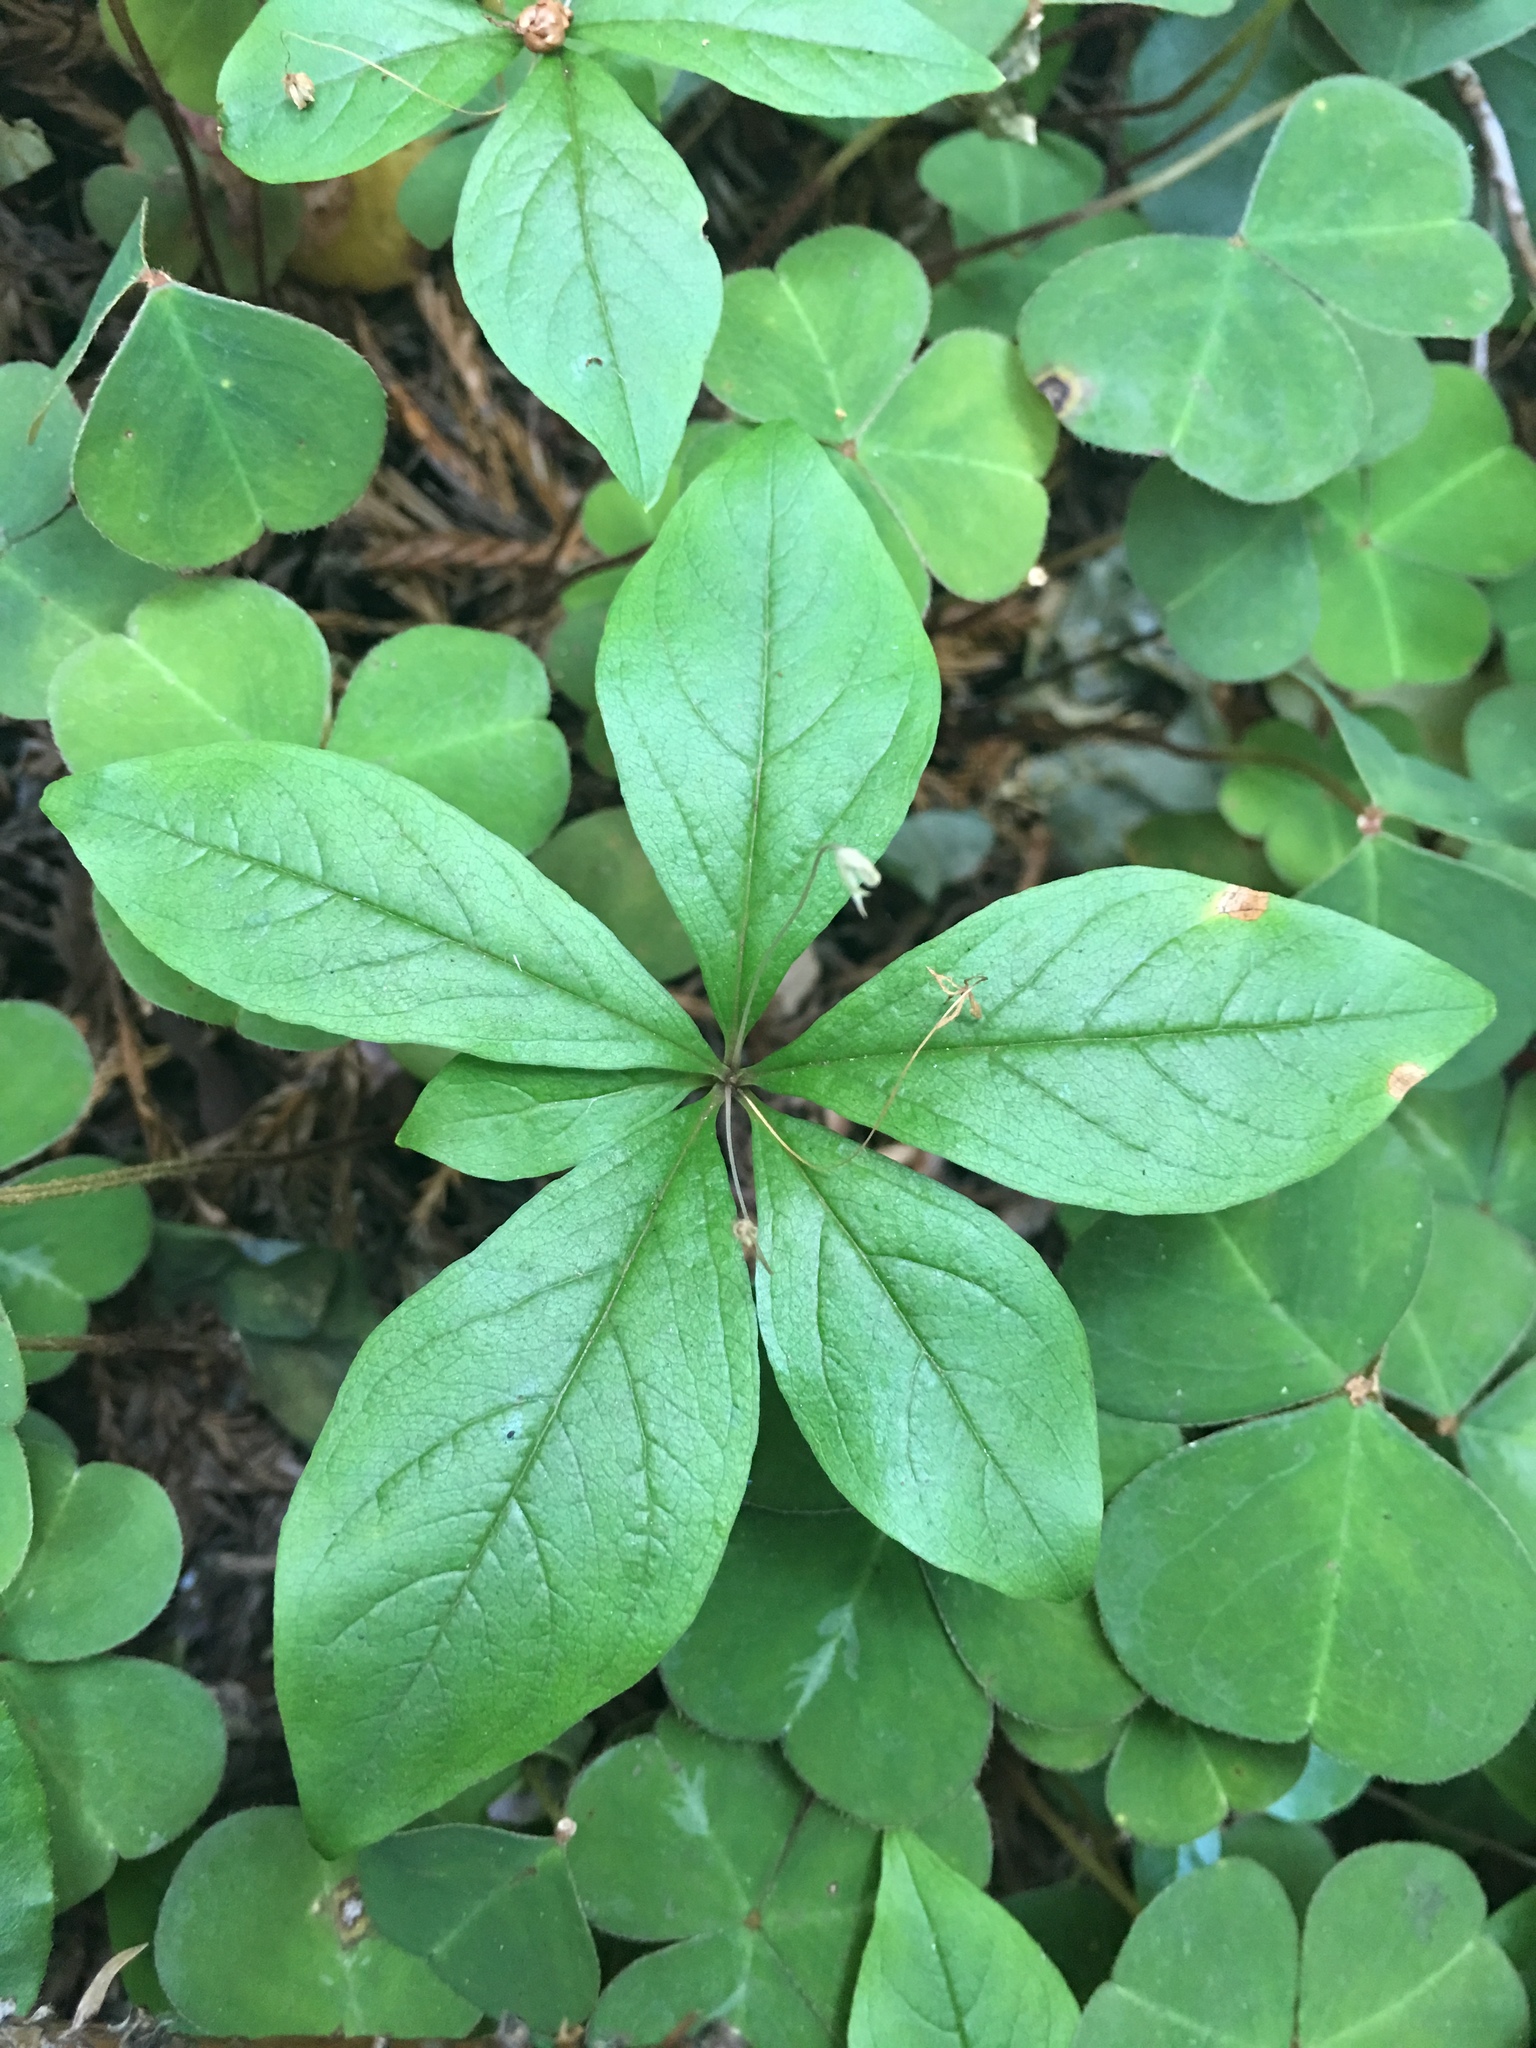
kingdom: Plantae
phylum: Tracheophyta
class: Magnoliopsida
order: Ericales
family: Primulaceae
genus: Lysimachia
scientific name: Lysimachia latifolia
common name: Pacific starflower
